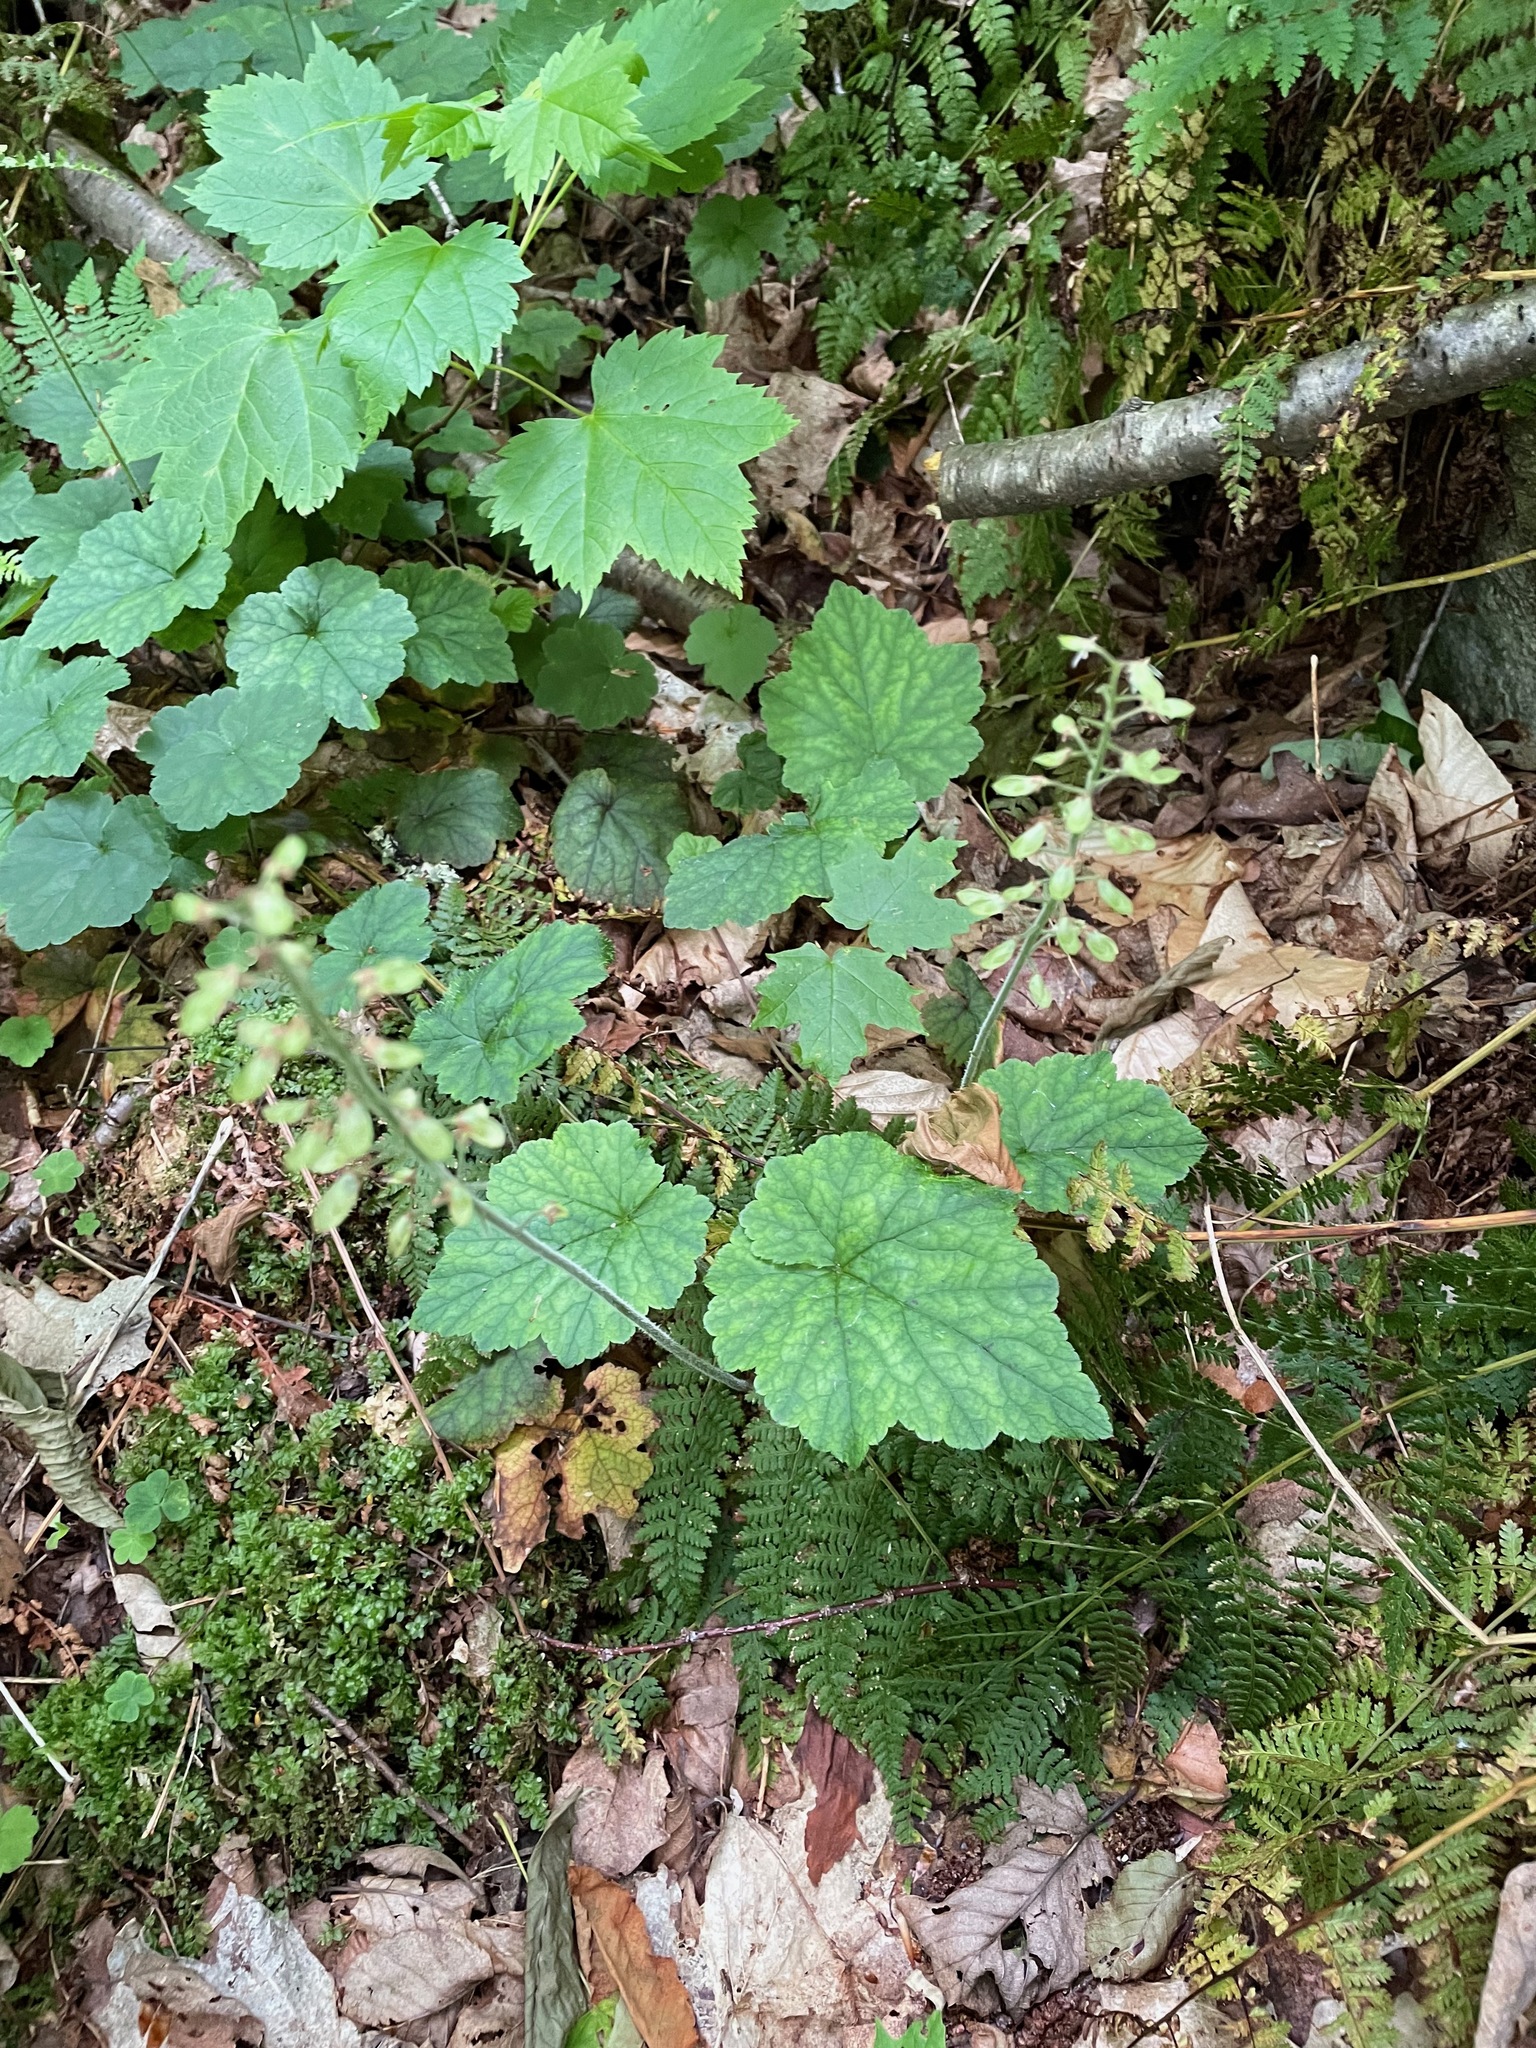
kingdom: Plantae
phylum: Tracheophyta
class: Magnoliopsida
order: Saxifragales
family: Saxifragaceae
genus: Tiarella
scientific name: Tiarella stolonifera
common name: Stoloniferous foamflower
